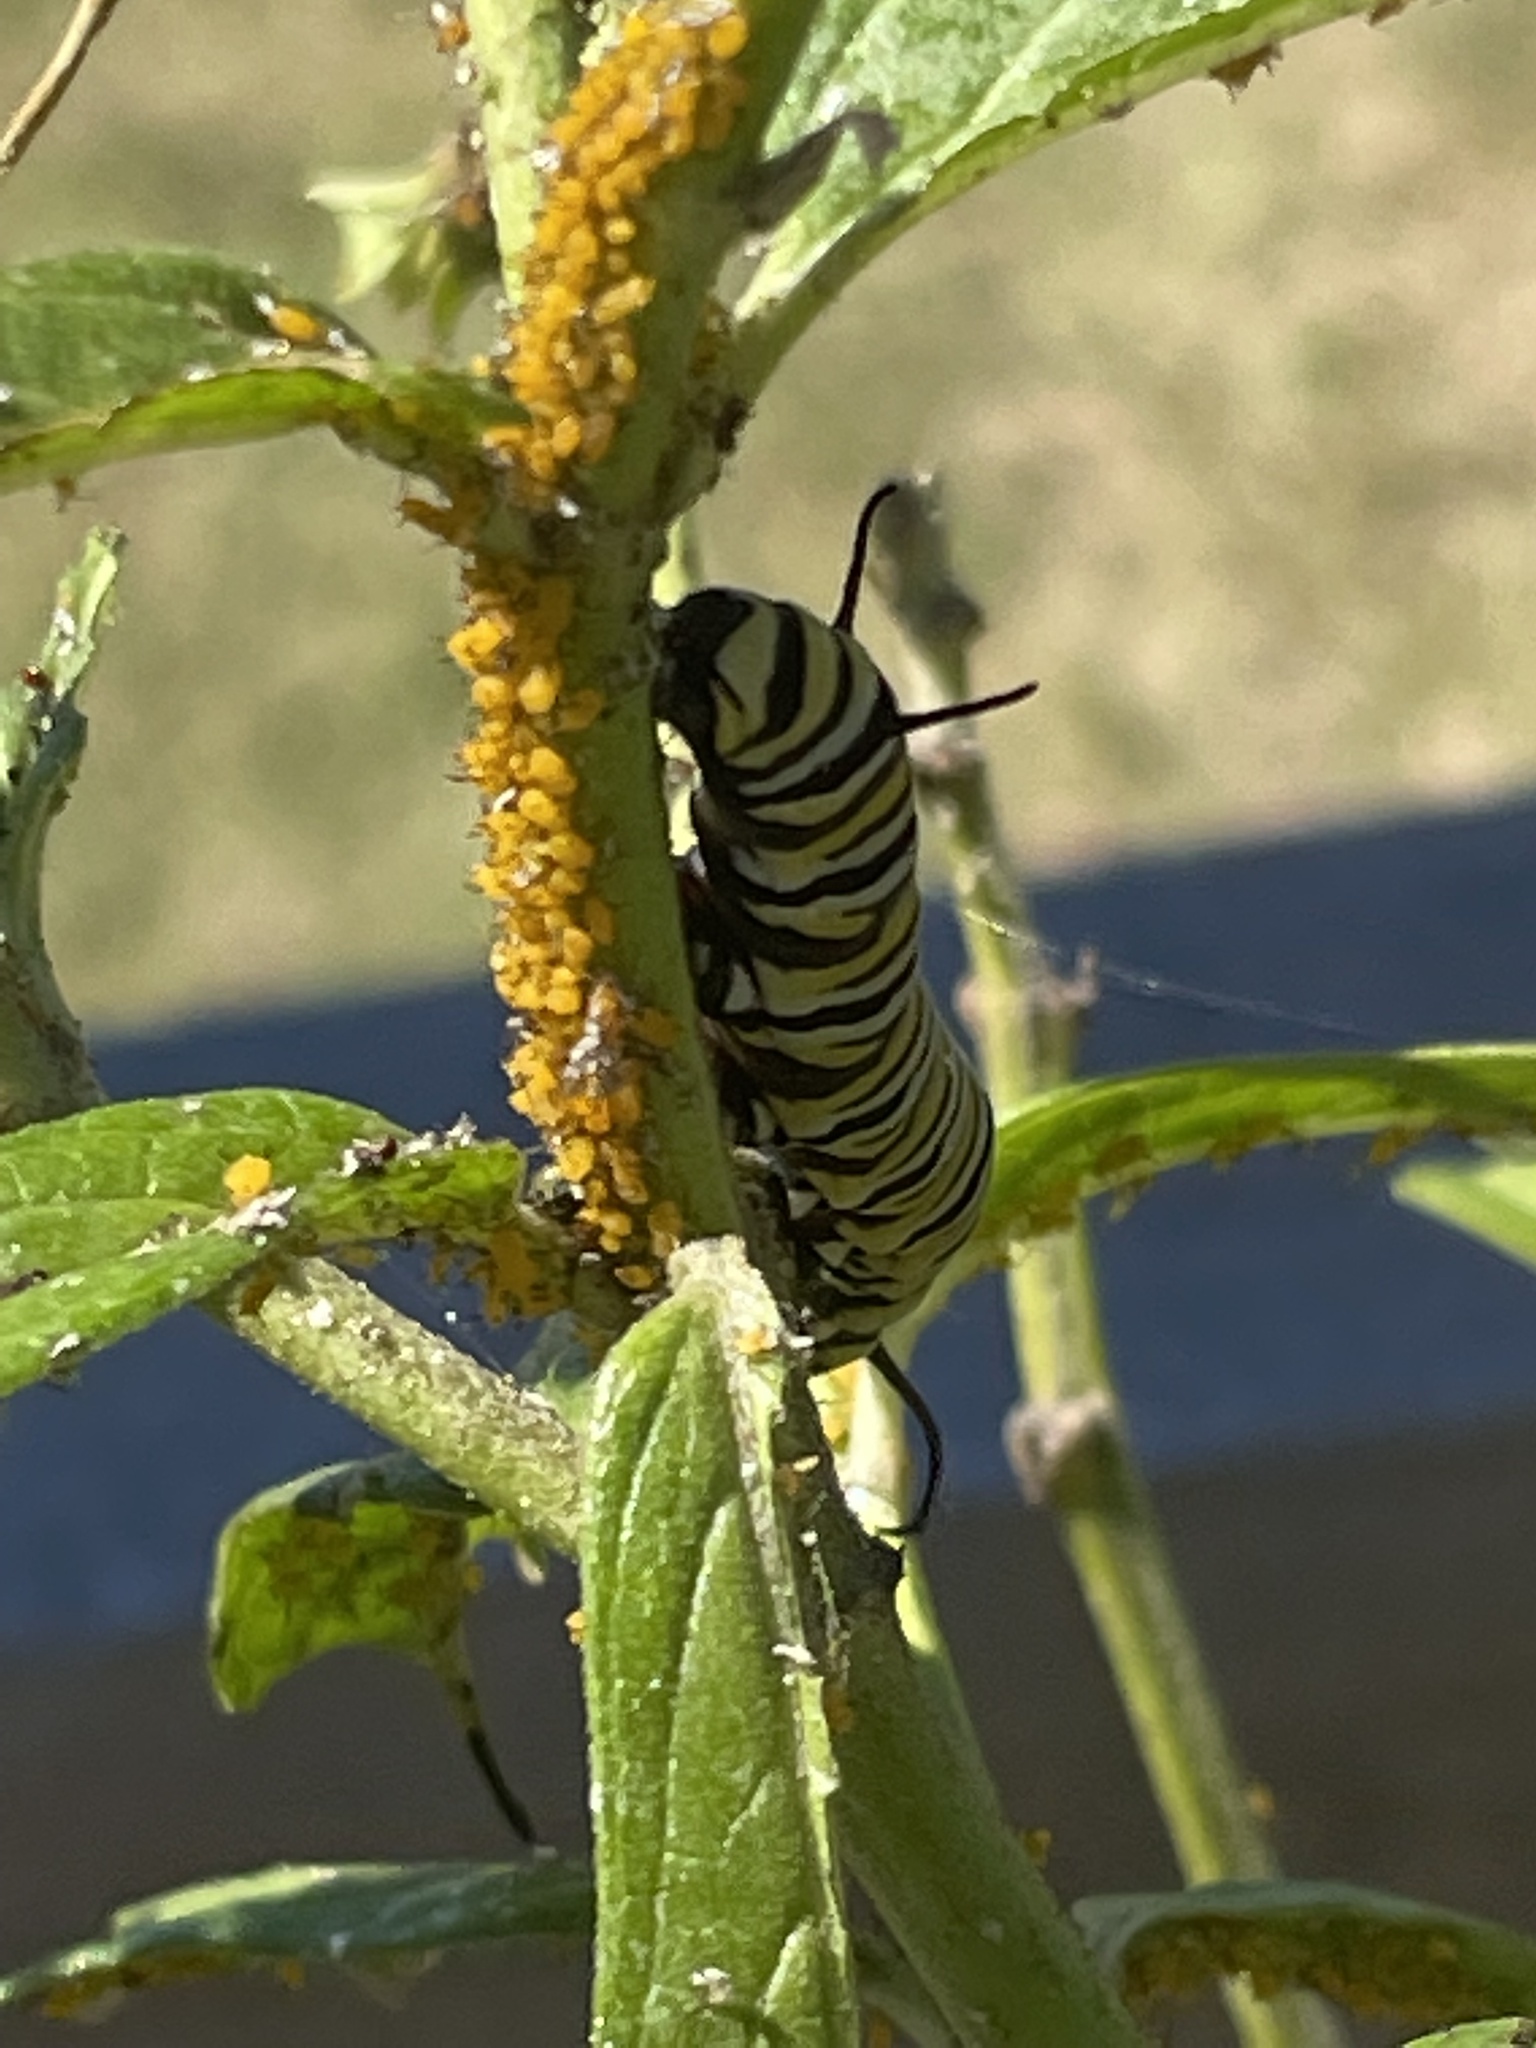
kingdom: Animalia
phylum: Arthropoda
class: Insecta
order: Lepidoptera
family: Nymphalidae
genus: Danaus
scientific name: Danaus plexippus
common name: Monarch
